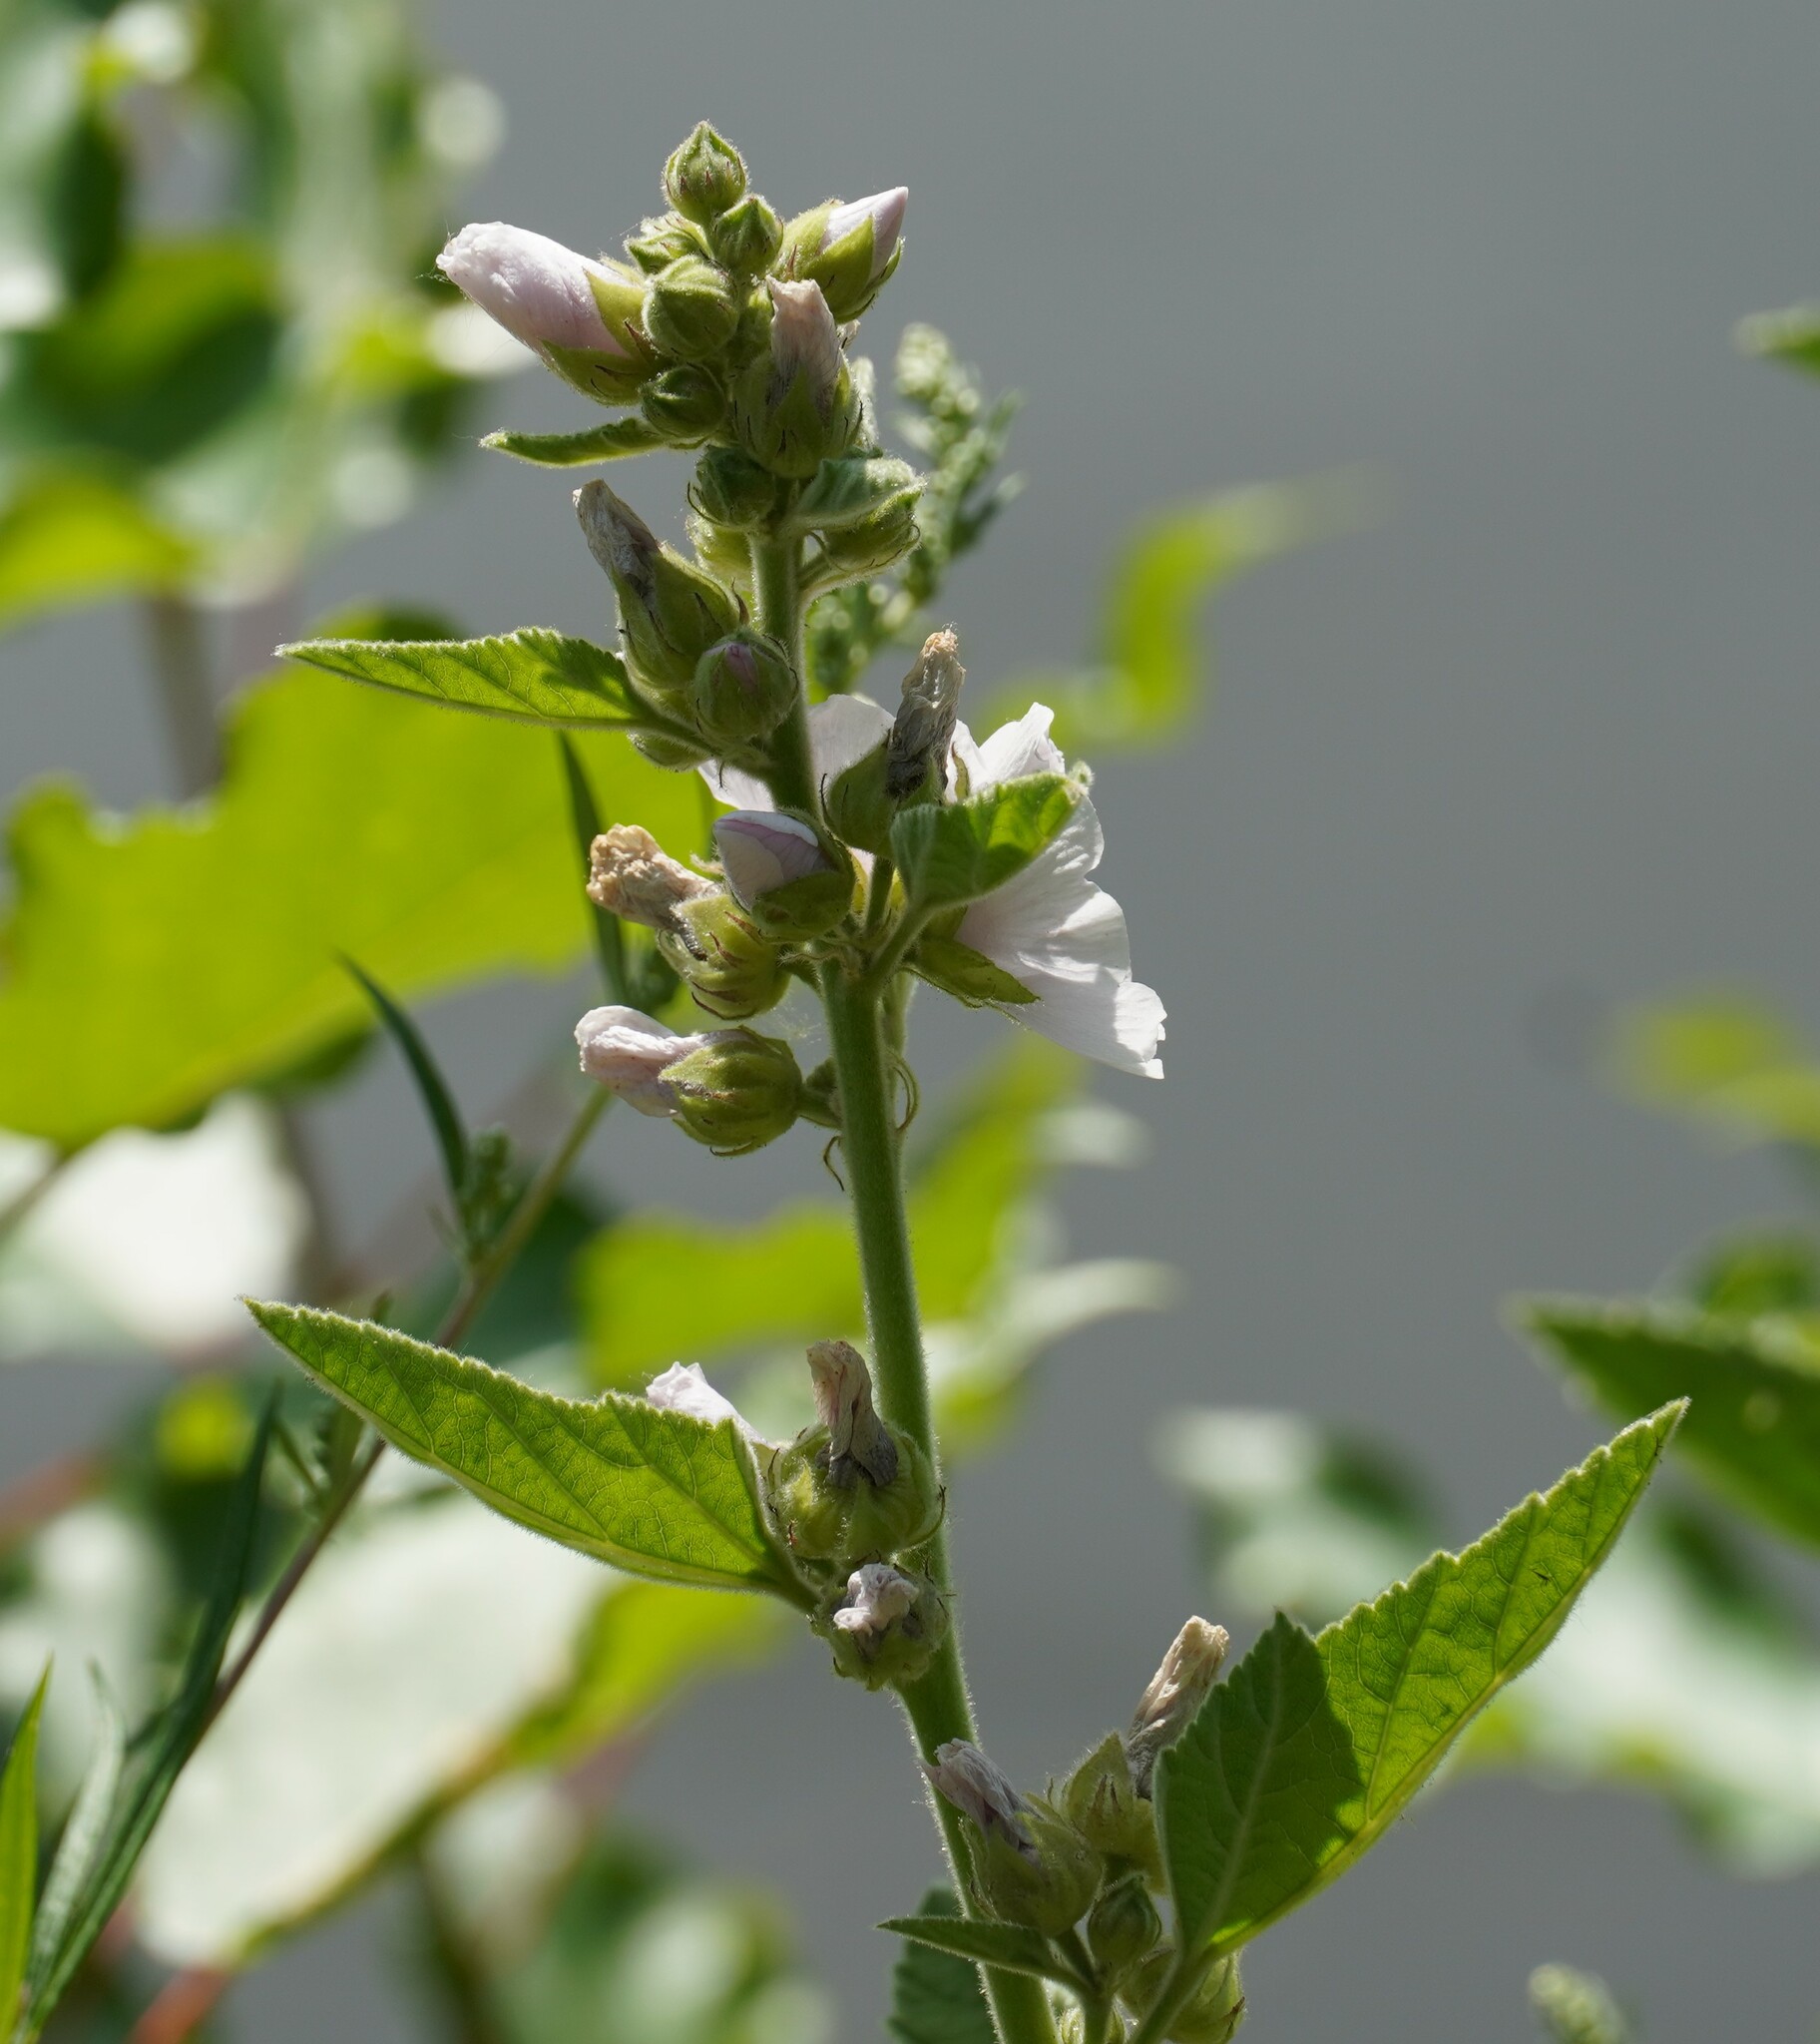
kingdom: Plantae
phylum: Tracheophyta
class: Magnoliopsida
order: Malvales
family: Malvaceae
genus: Althaea
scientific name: Althaea officinalis
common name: Marsh-mallow
